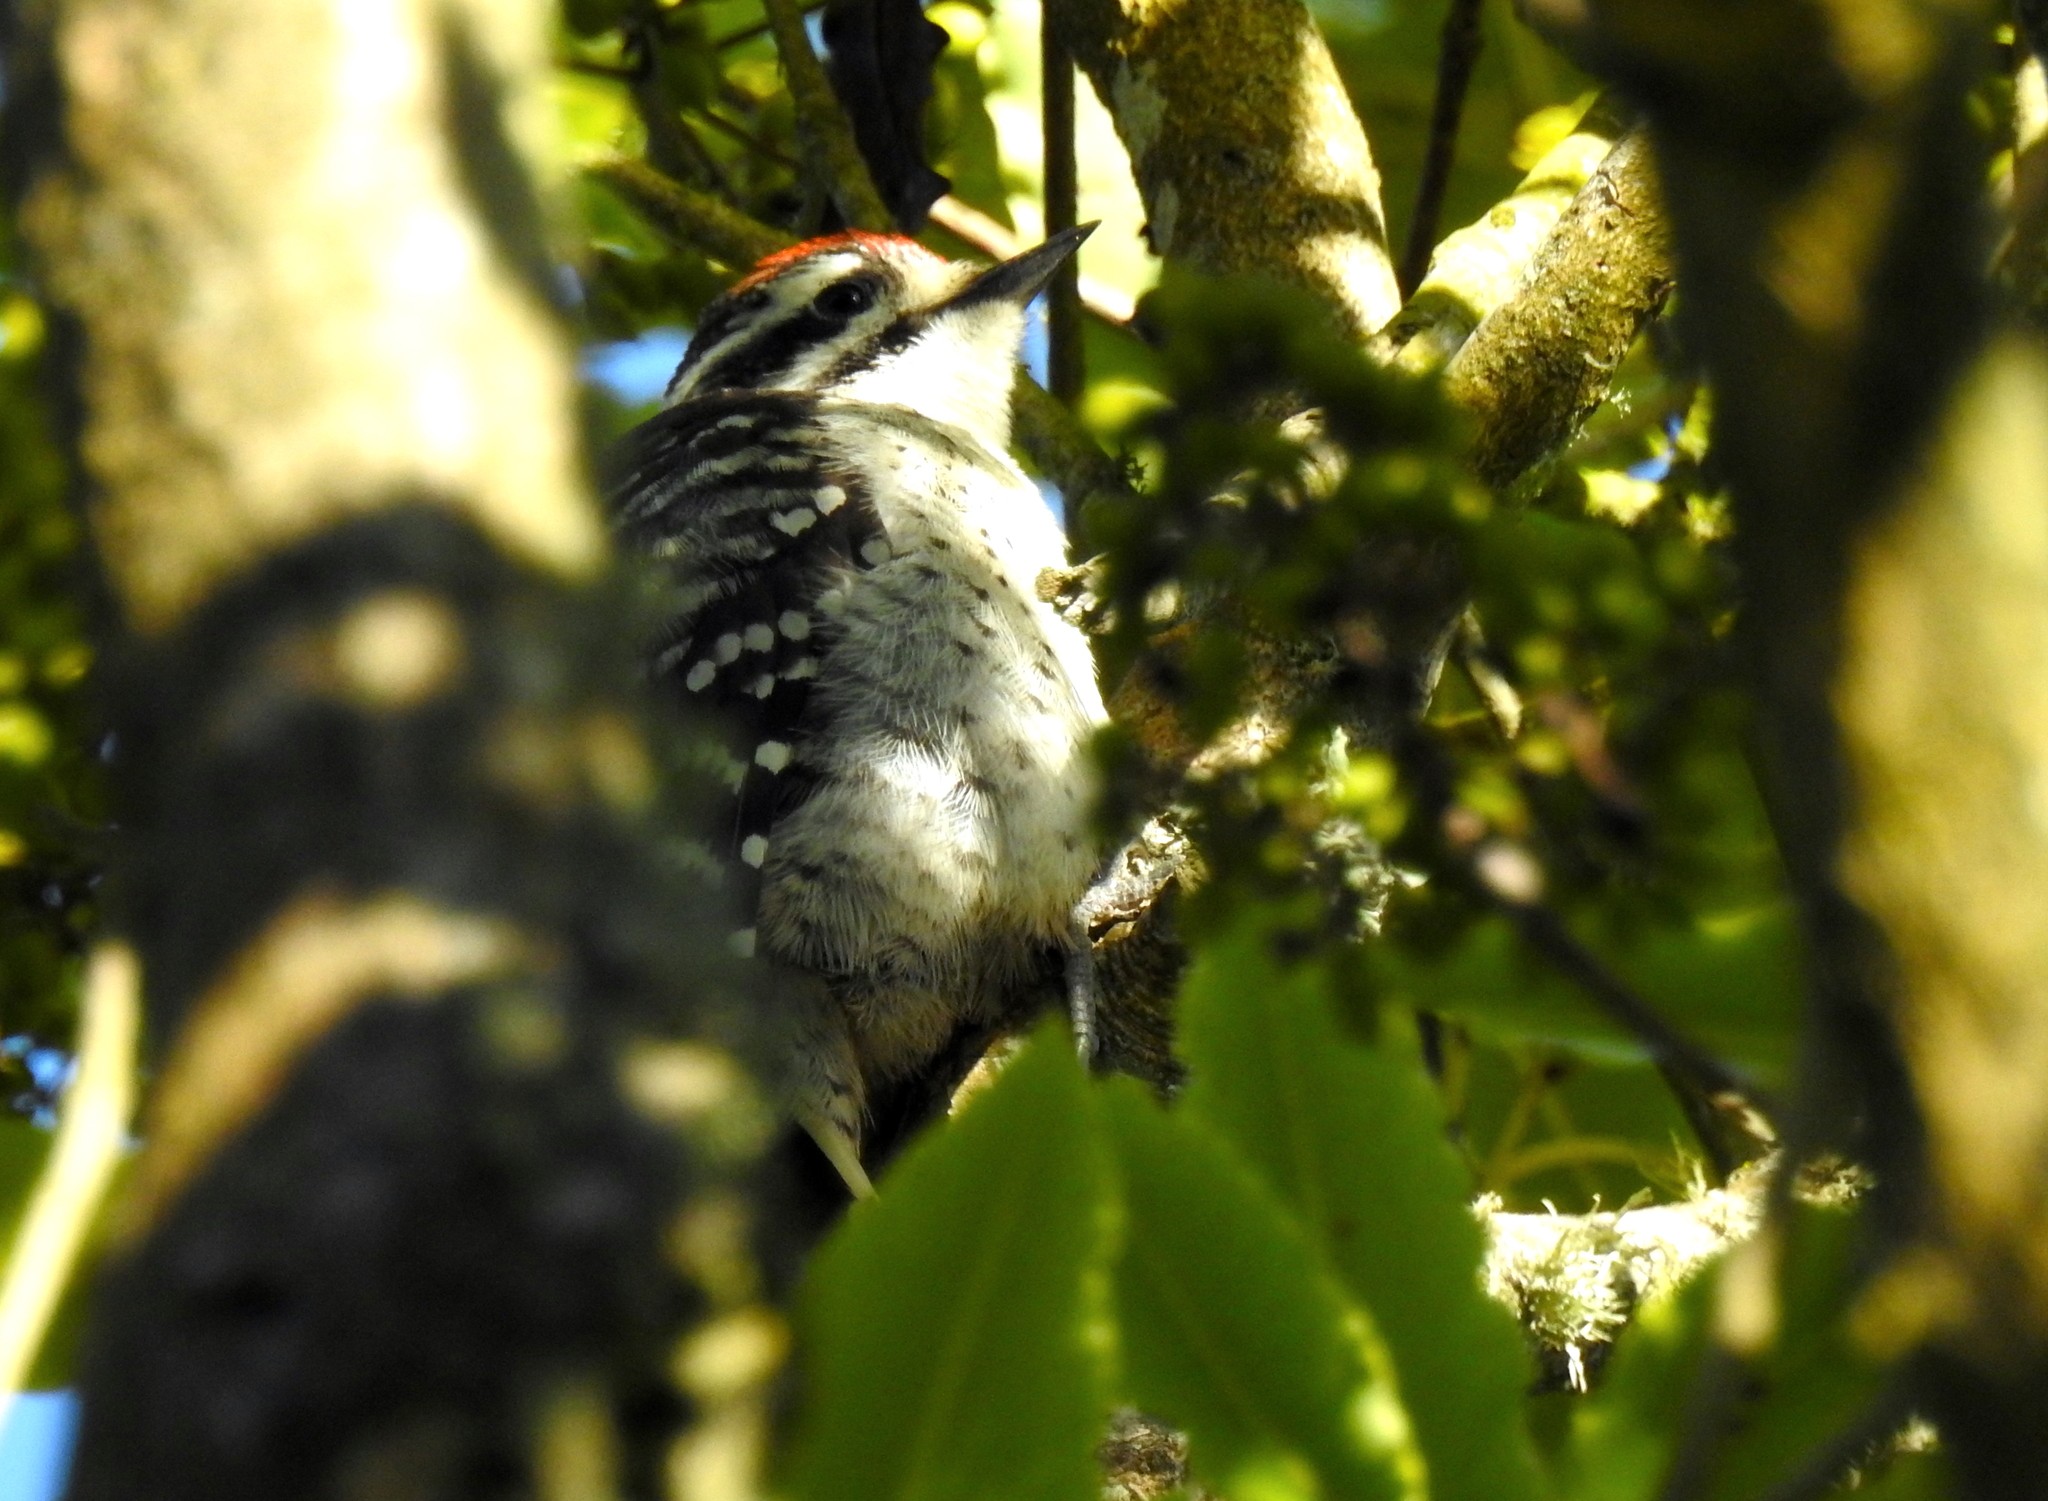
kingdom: Animalia
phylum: Chordata
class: Aves
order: Piciformes
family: Picidae
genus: Dryobates
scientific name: Dryobates nuttallii
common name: Nuttall's woodpecker
